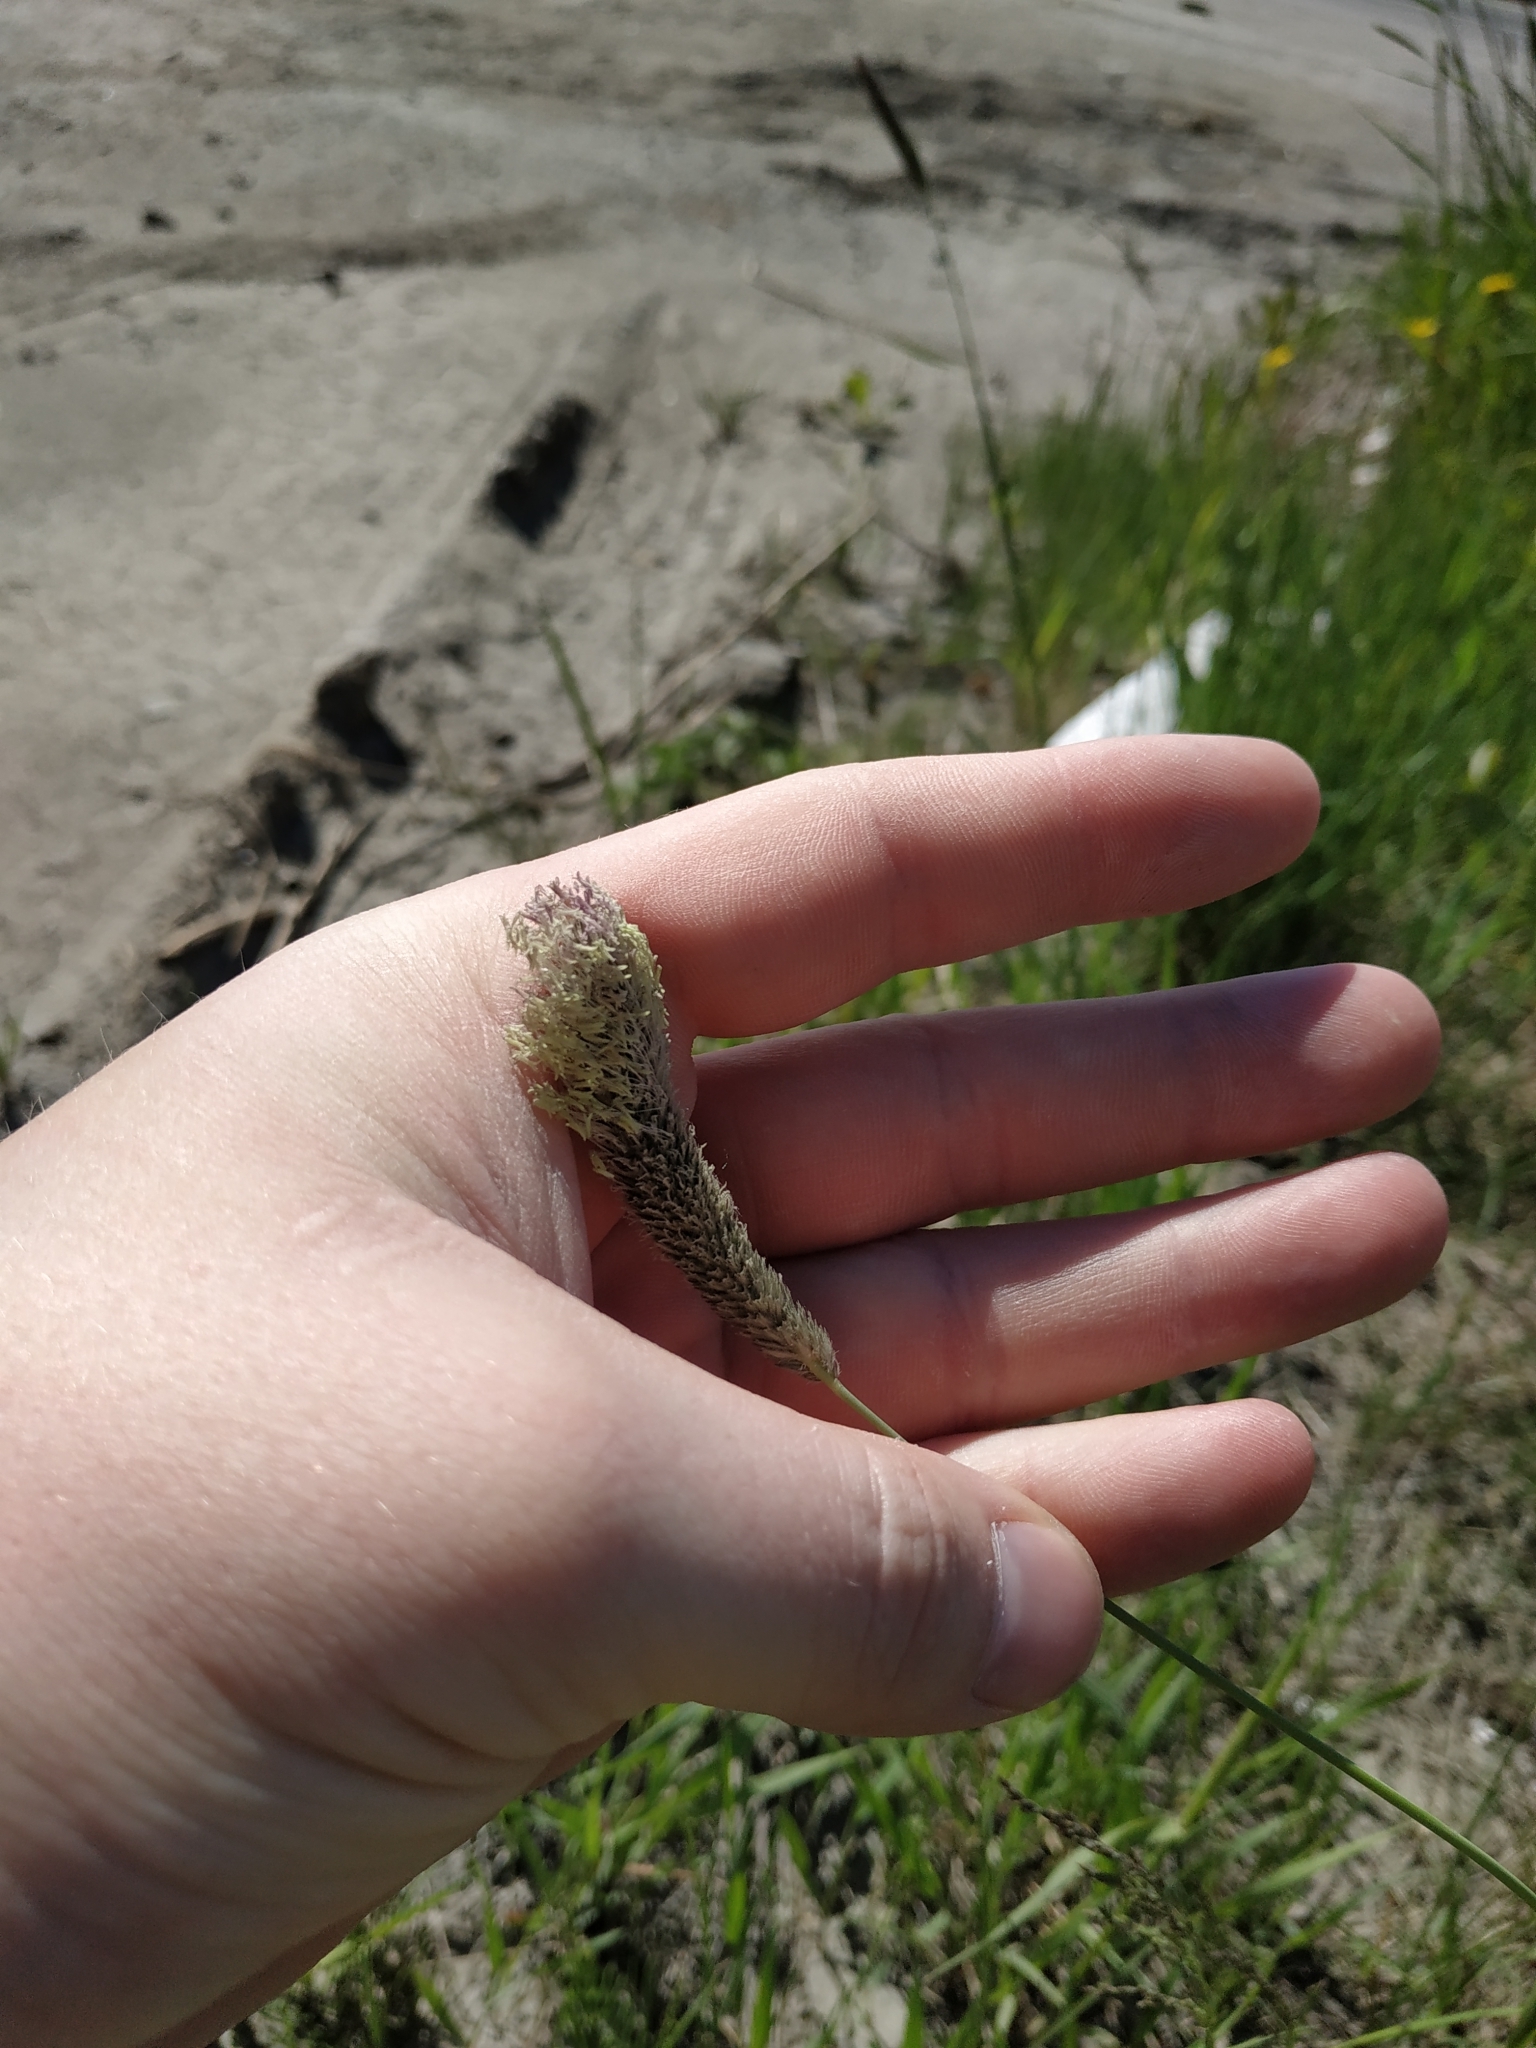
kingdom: Plantae
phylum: Tracheophyta
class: Liliopsida
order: Poales
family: Poaceae
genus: Phleum
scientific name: Phleum pratense
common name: Timothy grass
